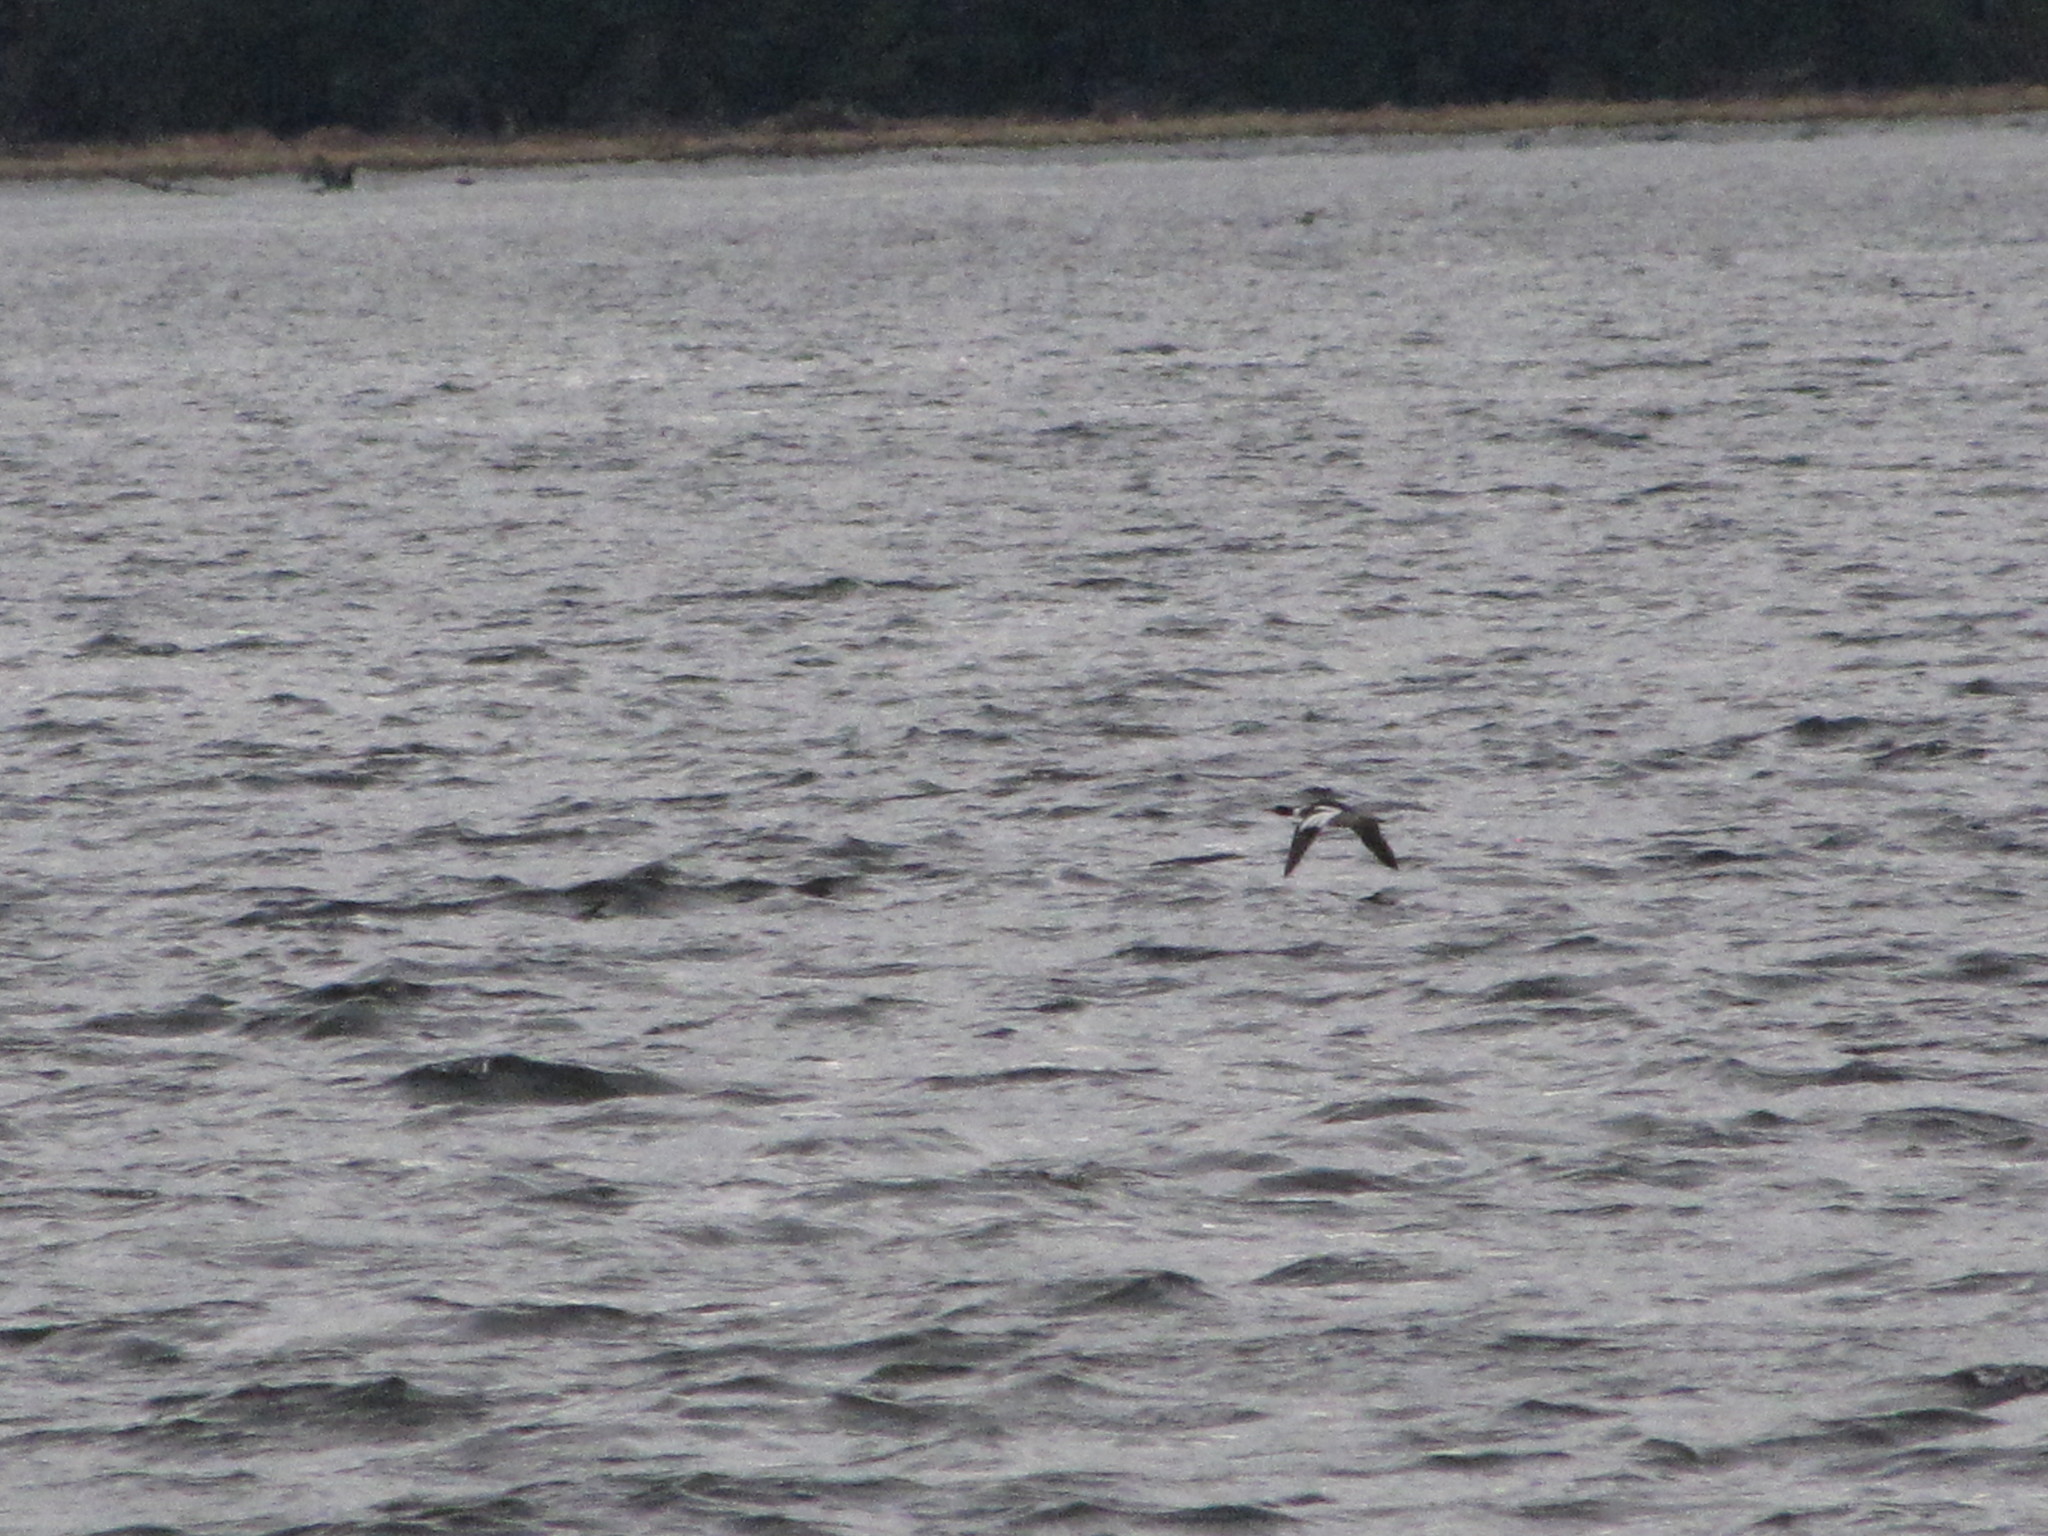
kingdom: Animalia
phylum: Chordata
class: Aves
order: Anseriformes
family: Anatidae
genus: Mergus
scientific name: Mergus serrator
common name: Red-breasted merganser
